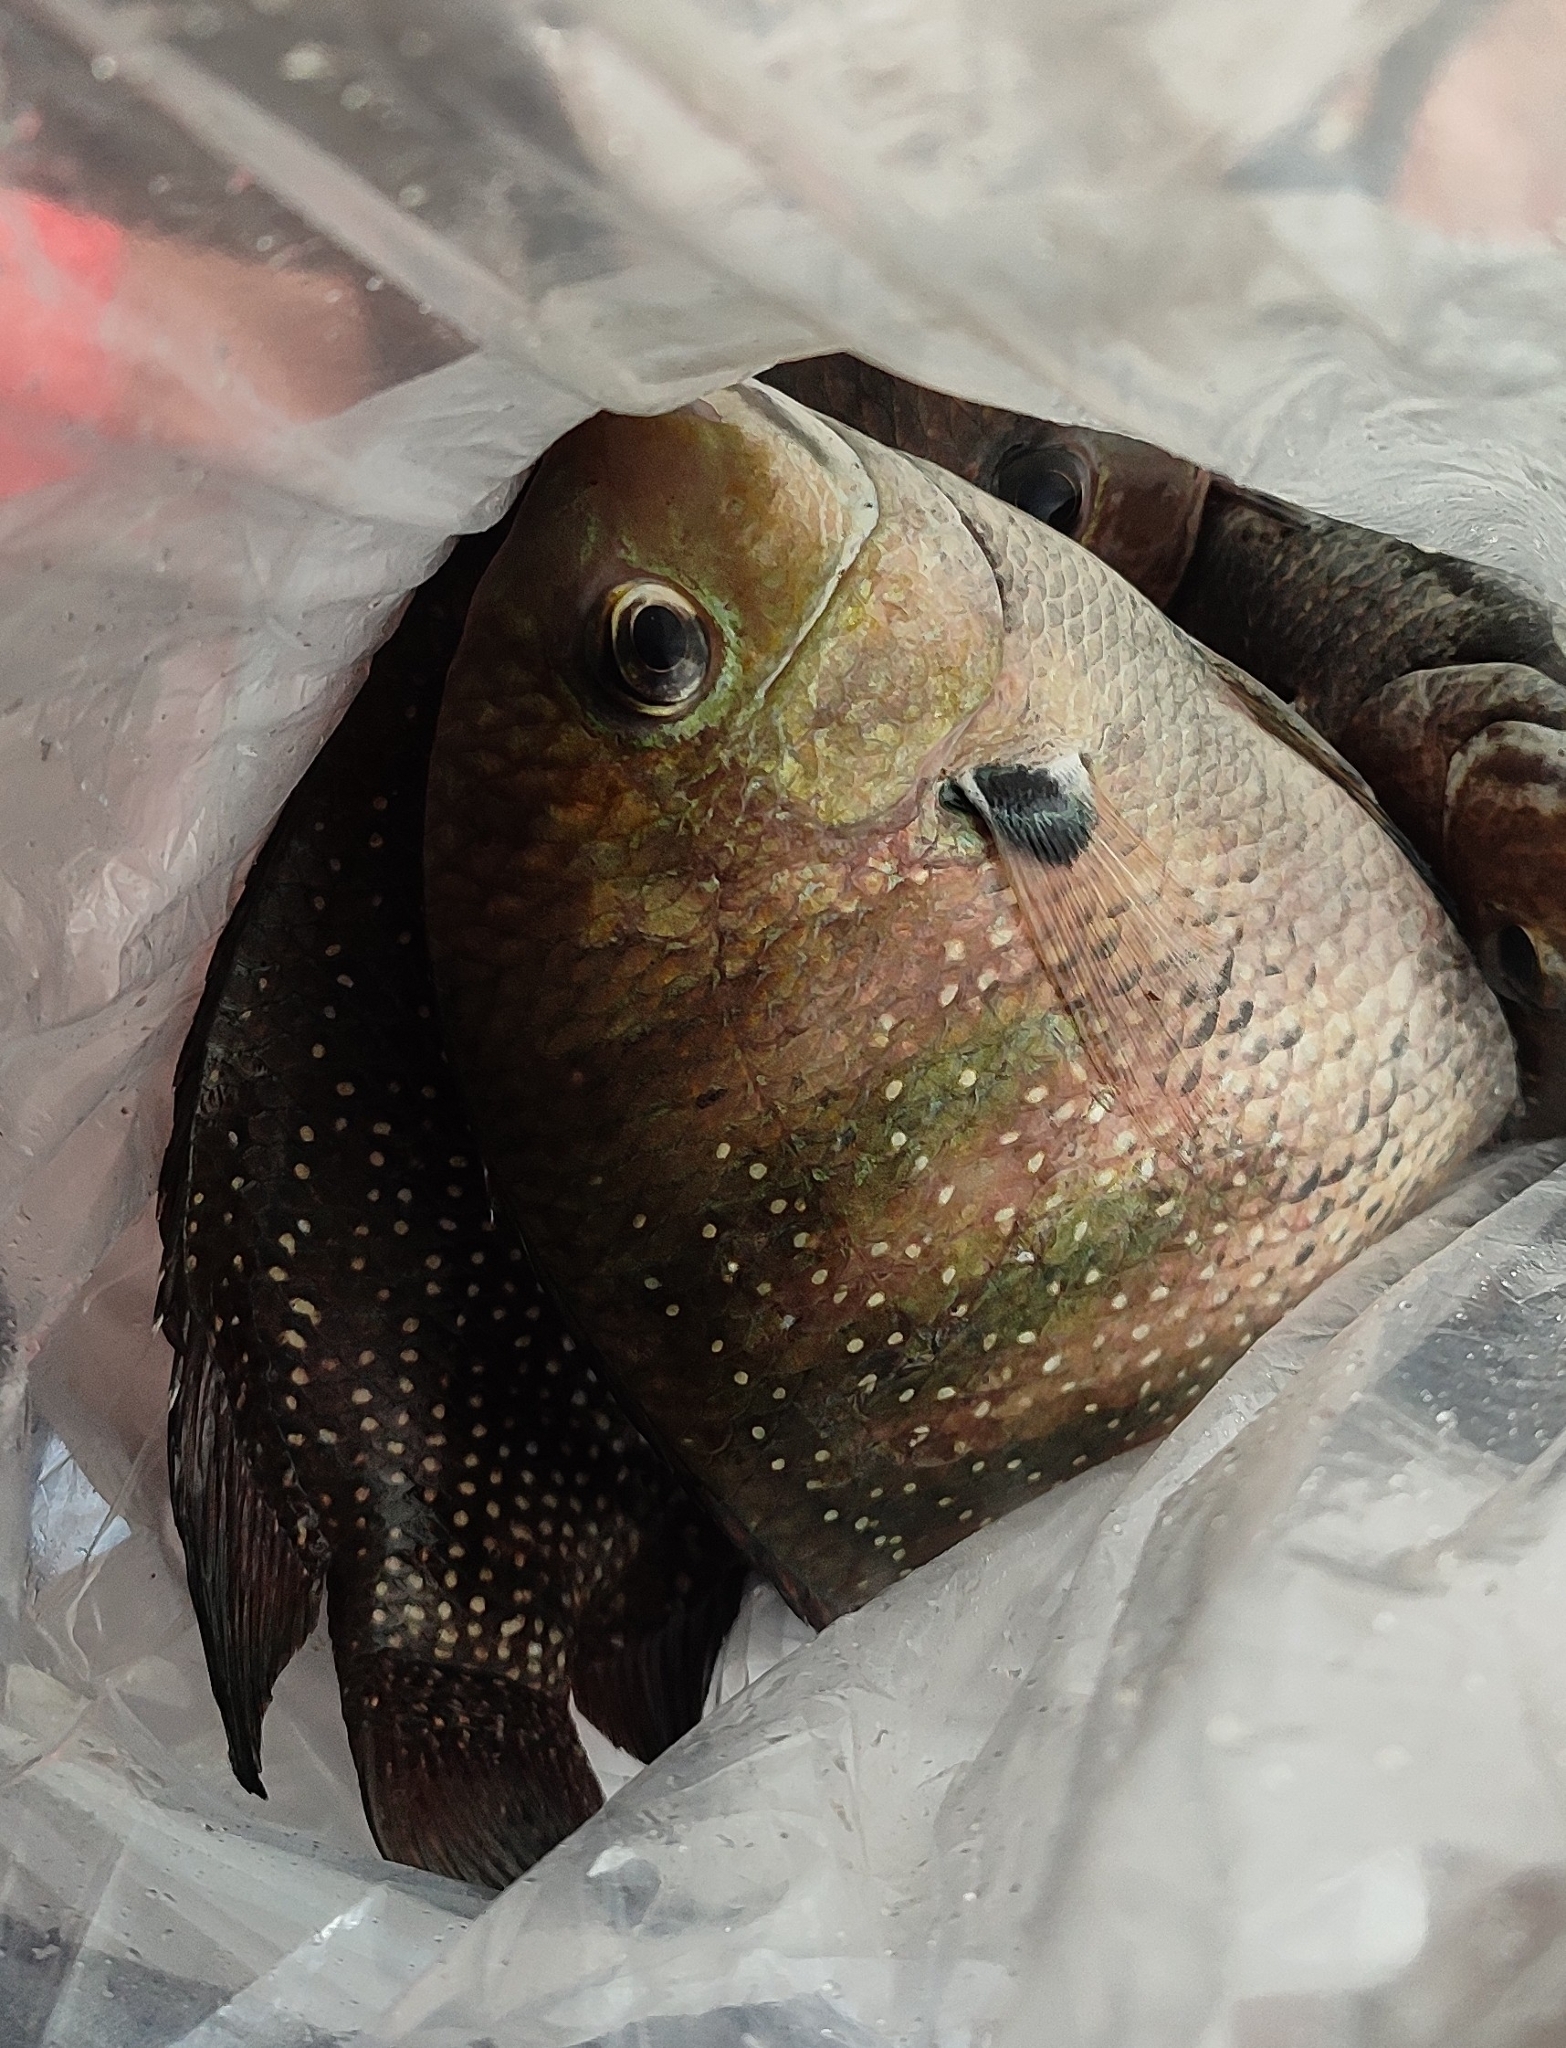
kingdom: Animalia
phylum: Chordata
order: Perciformes
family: Cichlidae
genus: Etroplus
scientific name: Etroplus suratensis
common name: Green chromide
